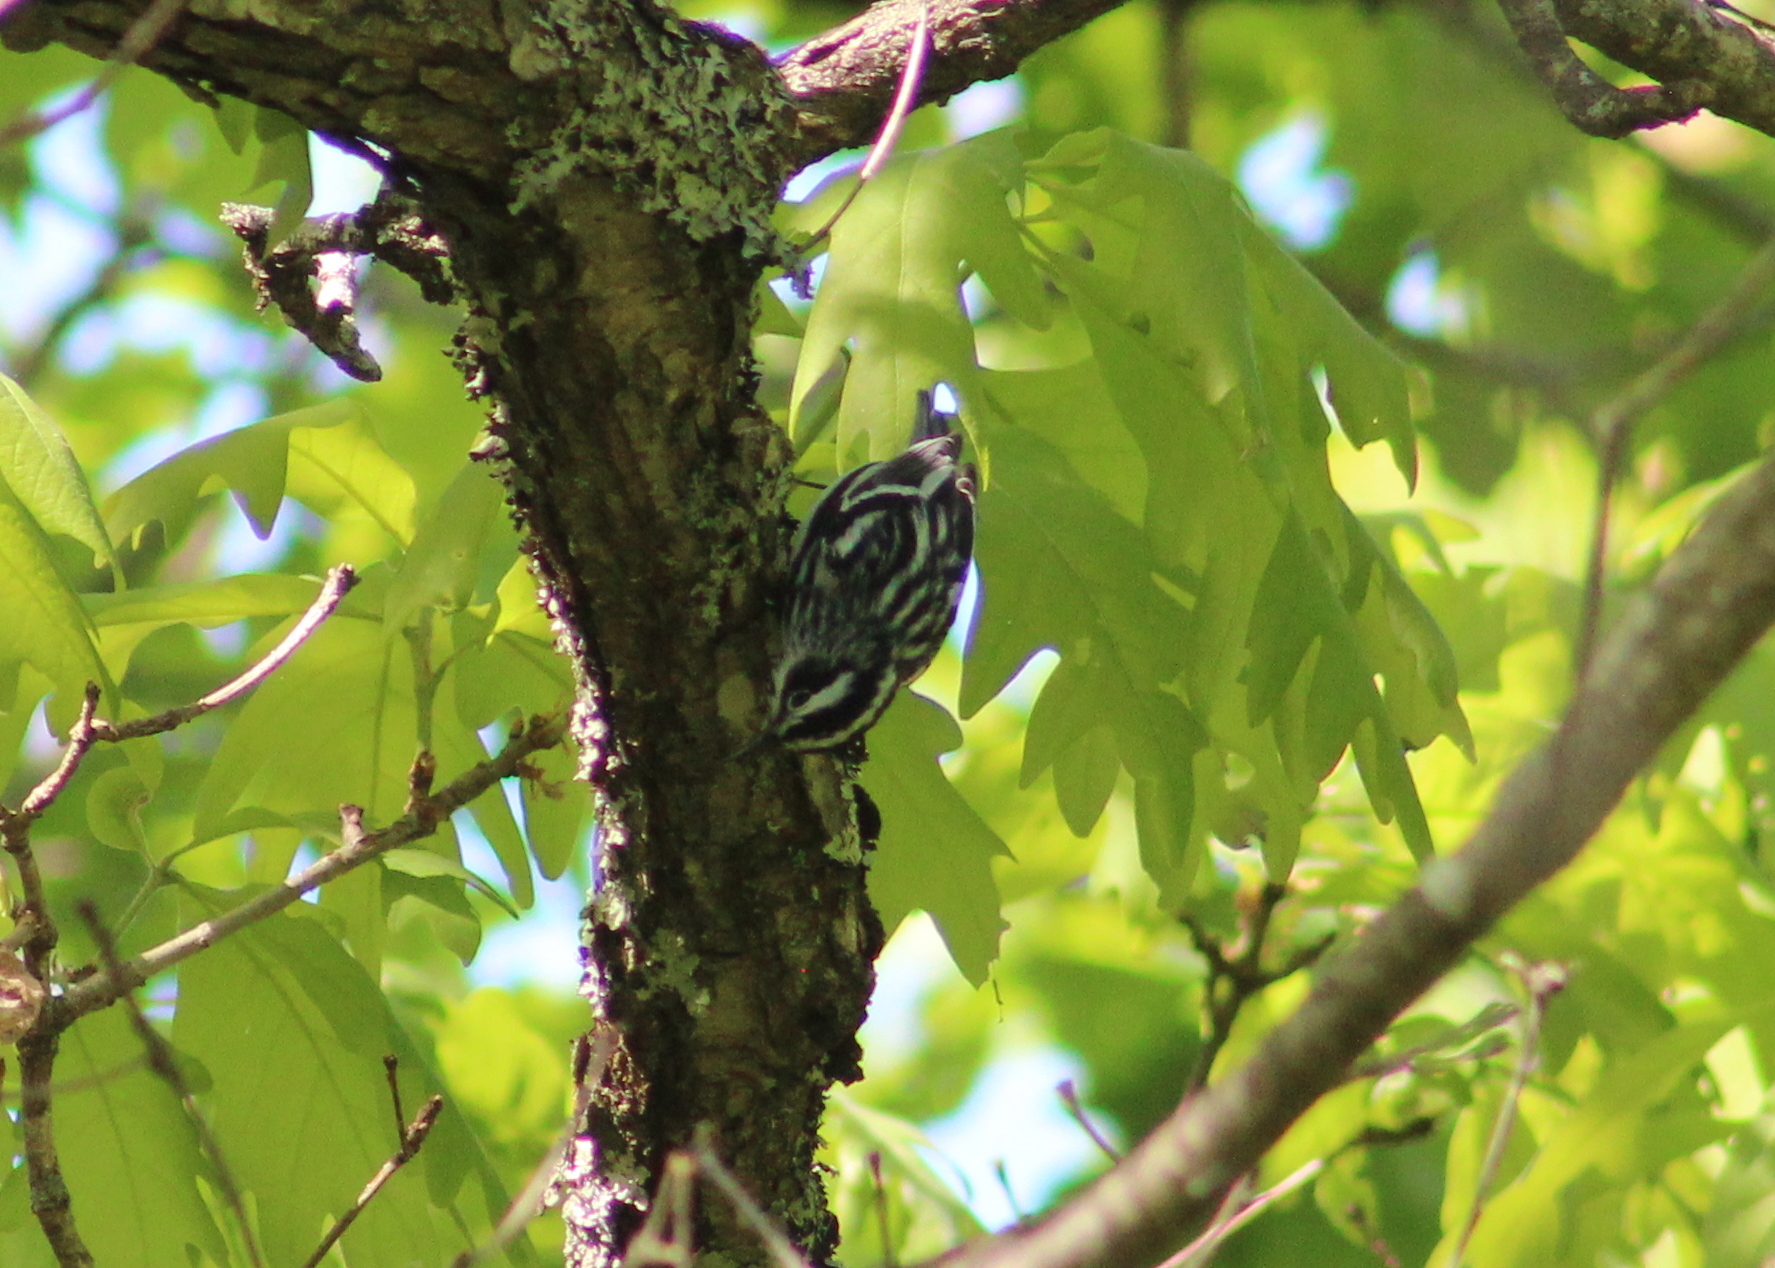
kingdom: Animalia
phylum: Chordata
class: Aves
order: Passeriformes
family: Parulidae
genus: Mniotilta
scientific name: Mniotilta varia
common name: Black-and-white warbler
